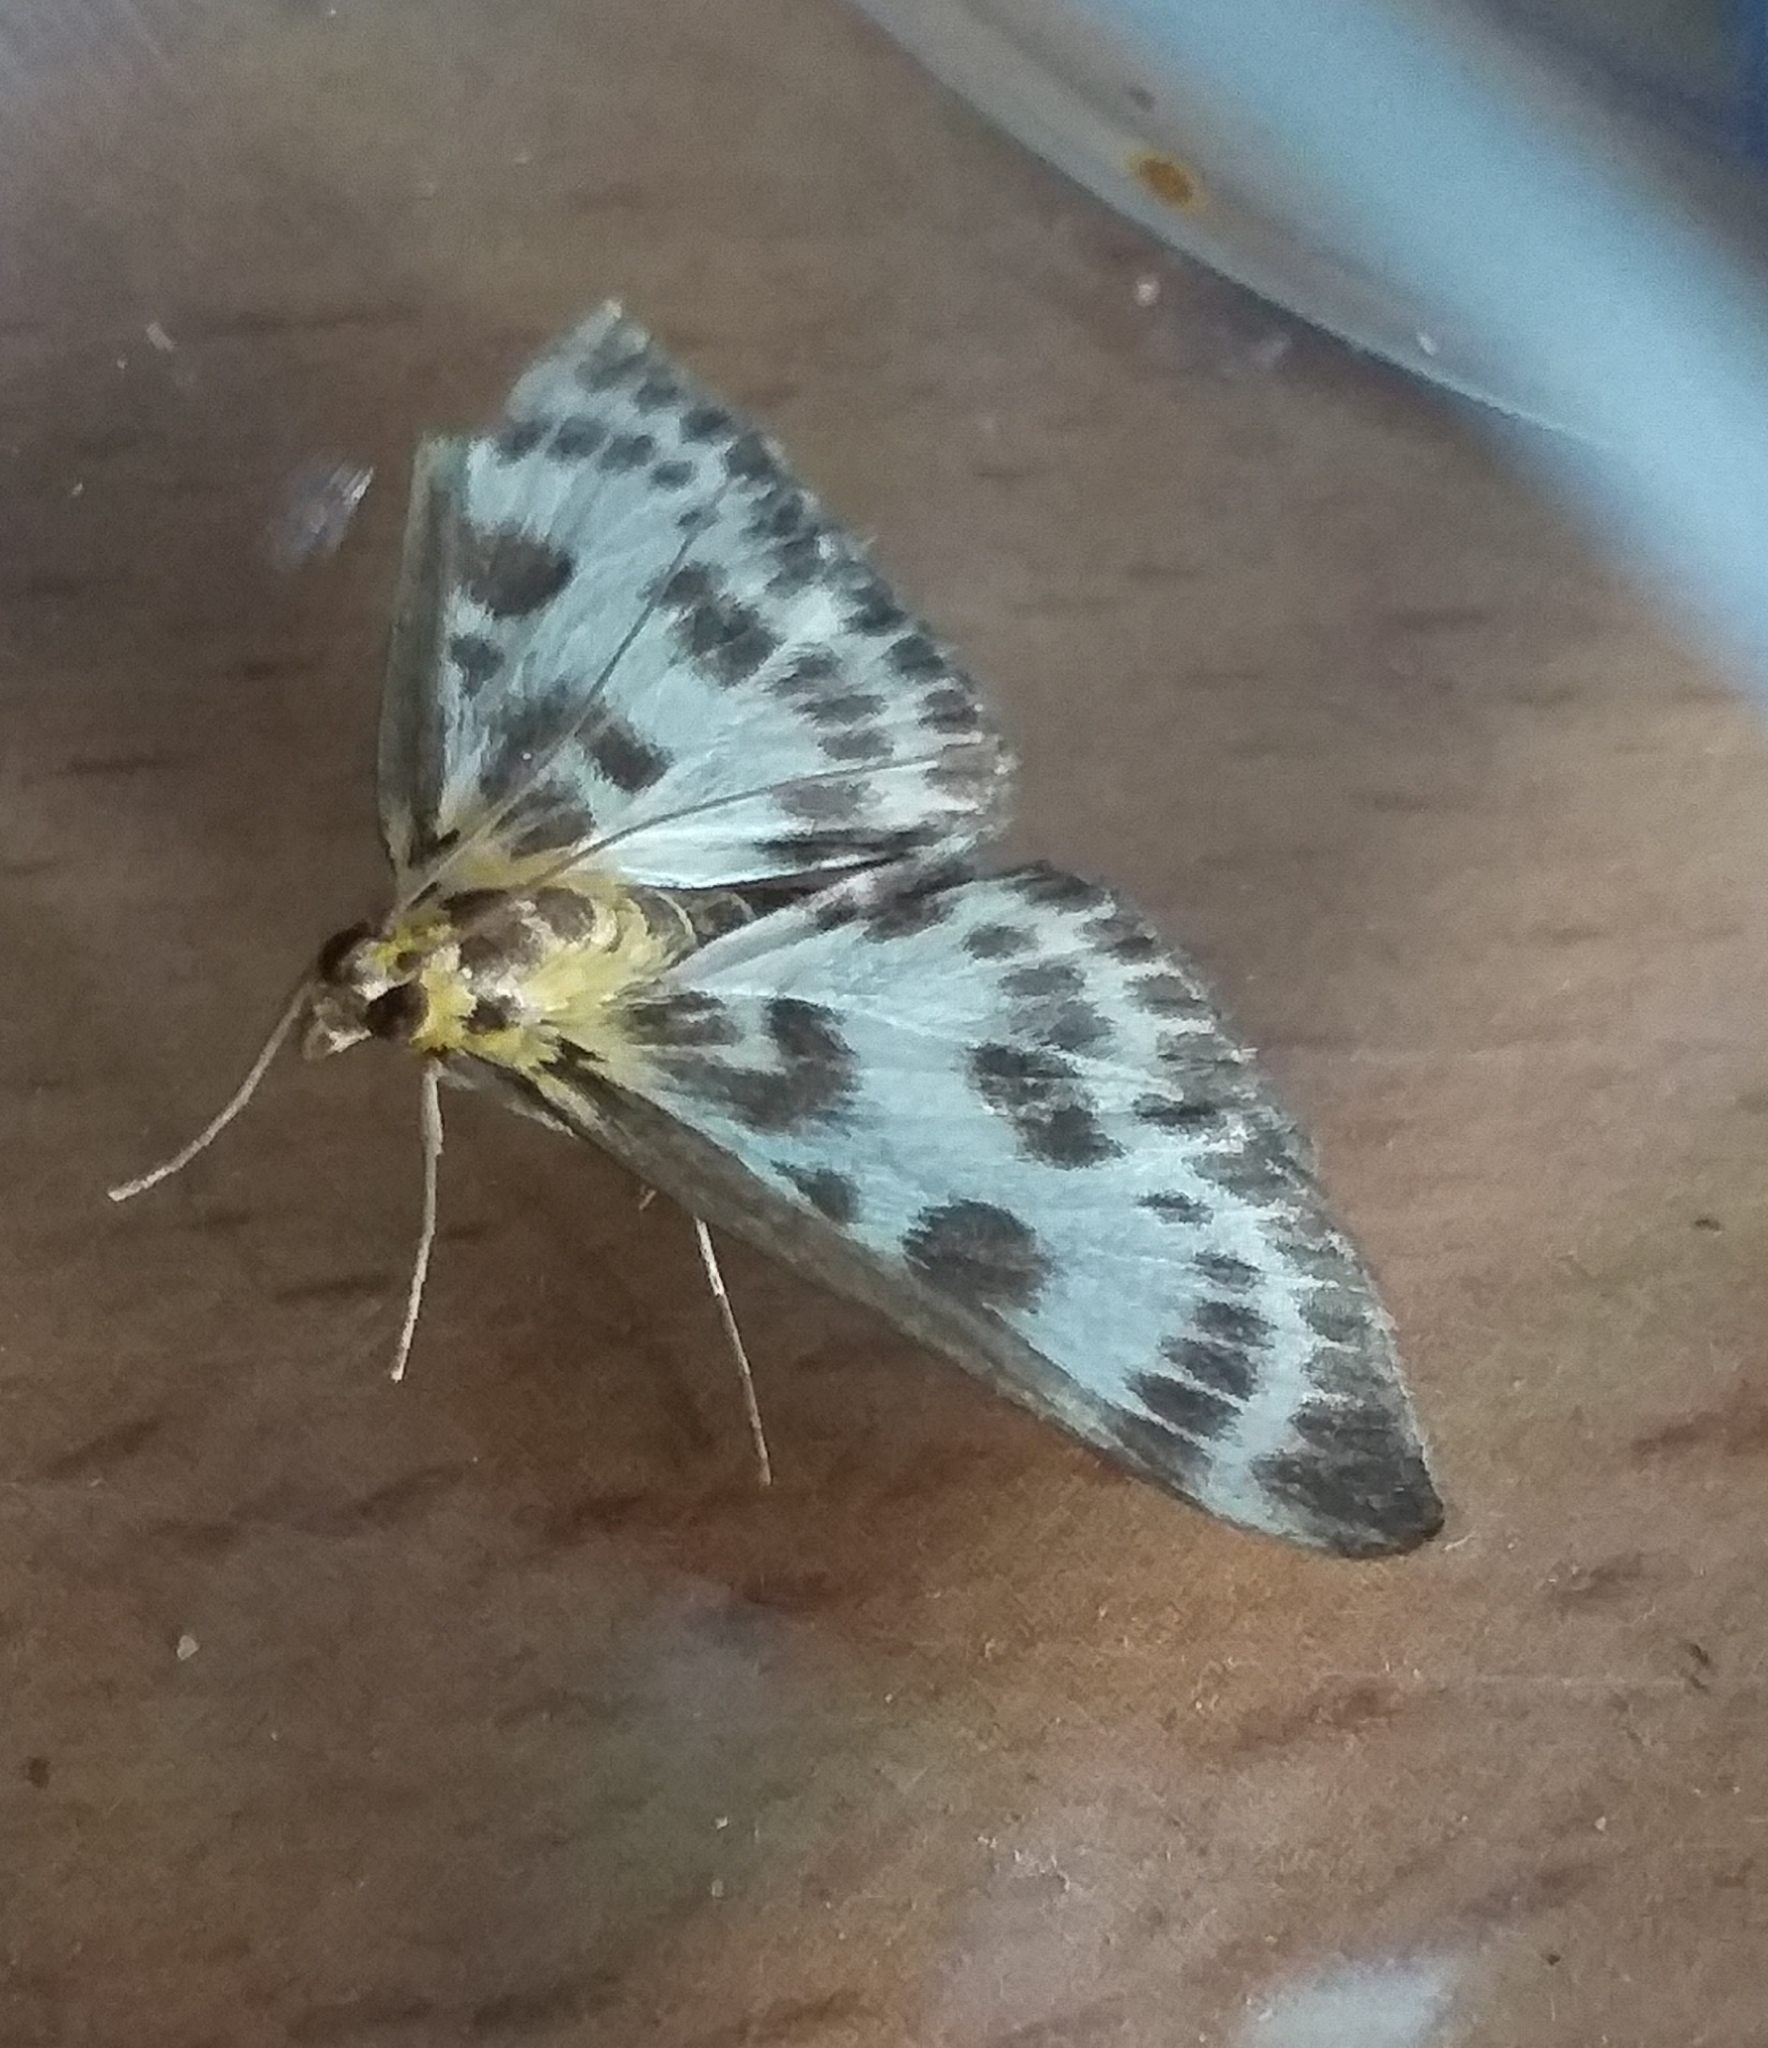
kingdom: Animalia
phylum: Arthropoda
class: Insecta
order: Lepidoptera
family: Crambidae
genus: Anania
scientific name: Anania hortulata
